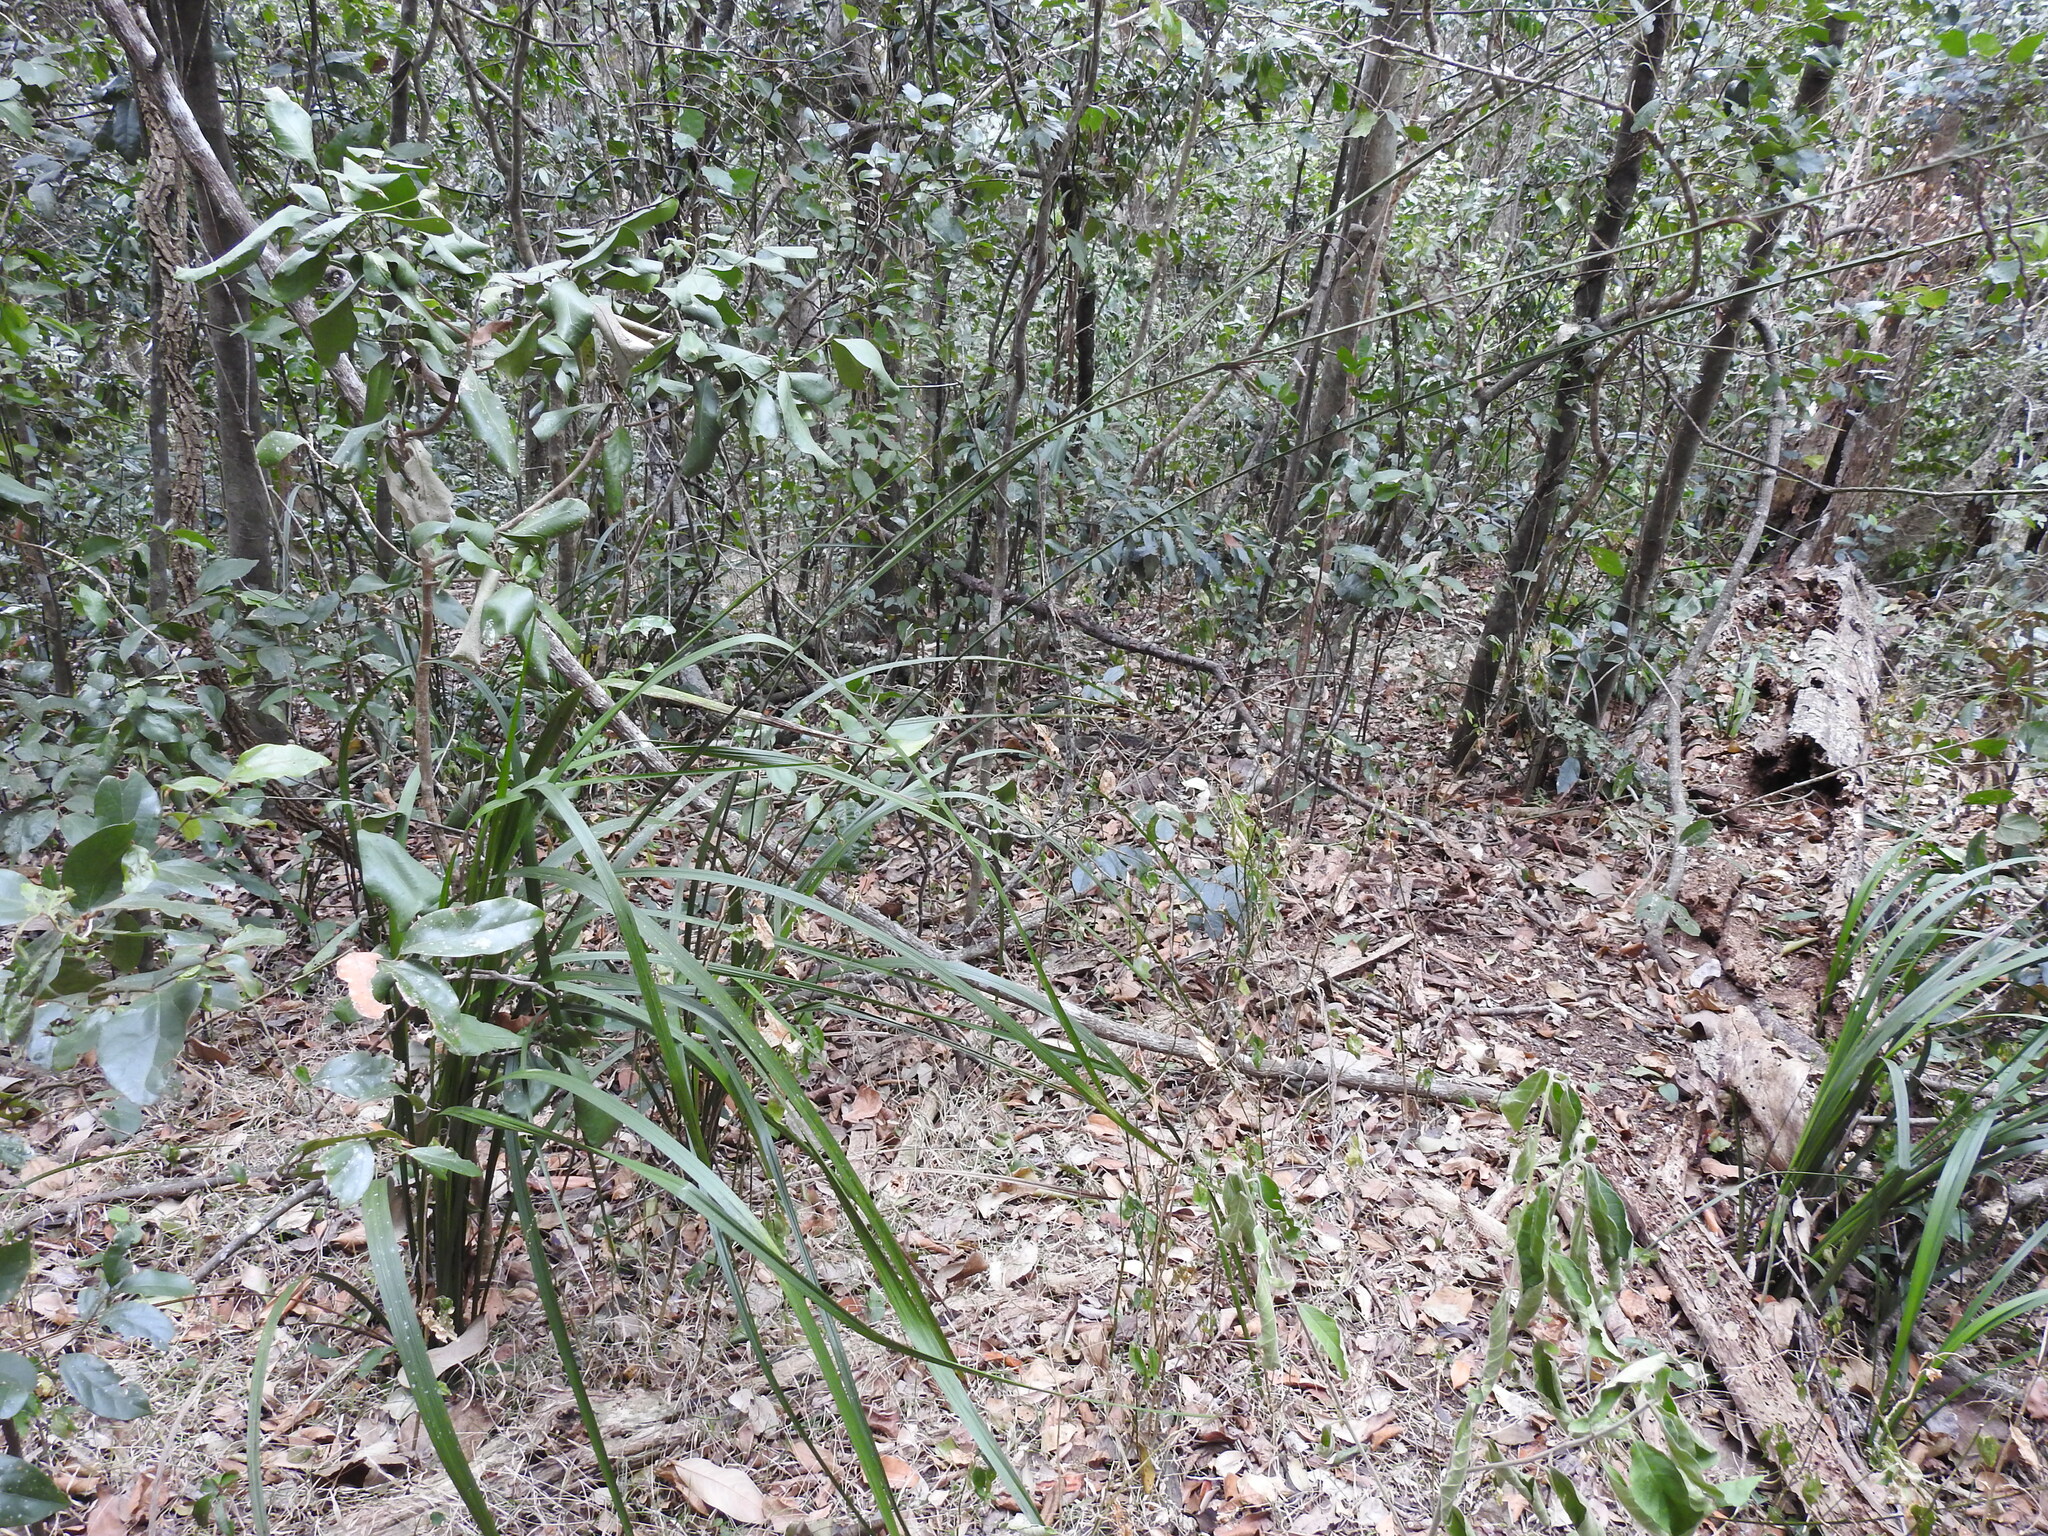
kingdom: Plantae
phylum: Tracheophyta
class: Liliopsida
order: Alismatales
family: Araceae
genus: Gymnostachys
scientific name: Gymnostachys anceps
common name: Settler's-flax
